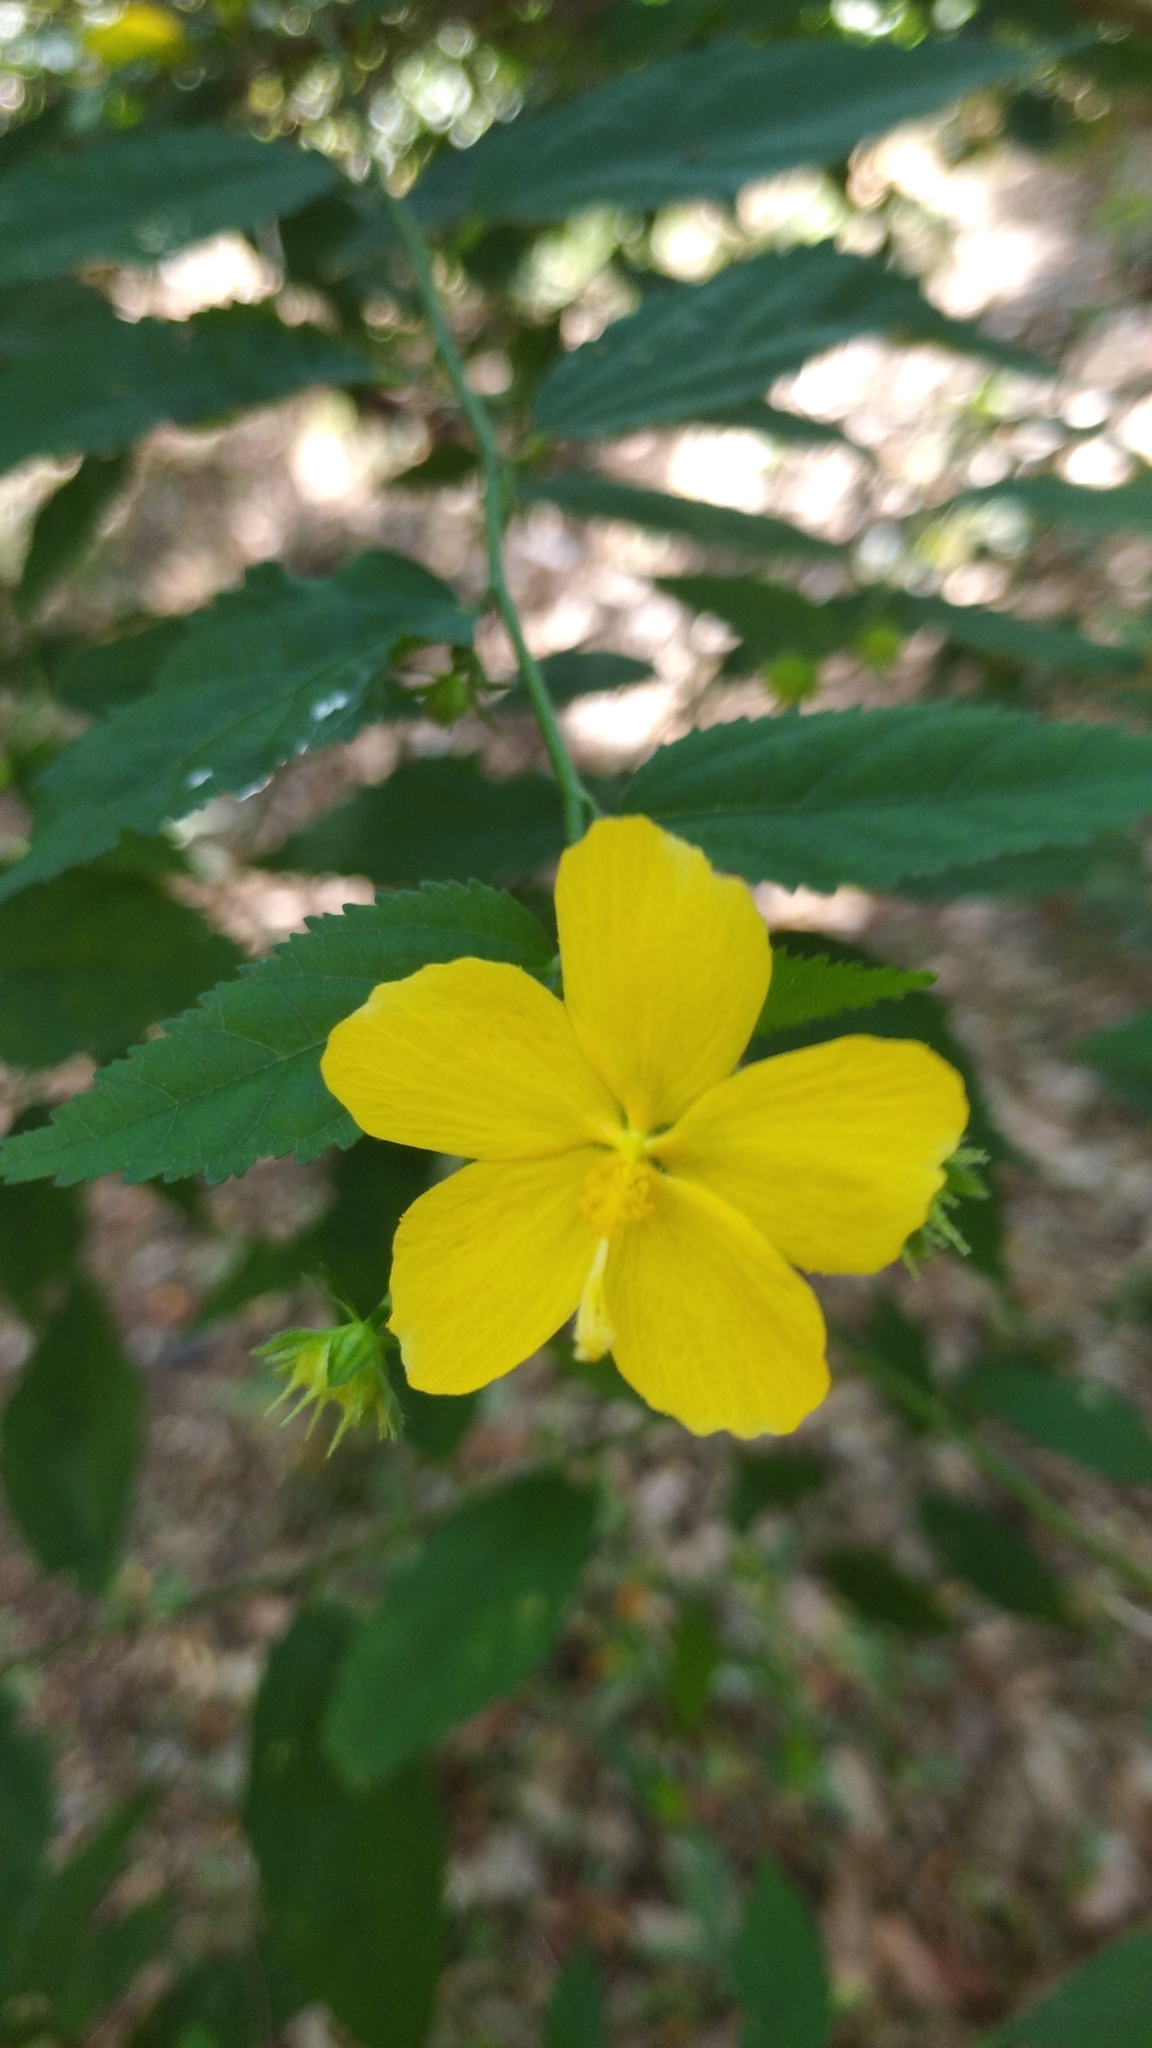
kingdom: Plantae
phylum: Tracheophyta
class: Magnoliopsida
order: Malvales
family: Malvaceae
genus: Pavonia
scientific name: Pavonia sepium
